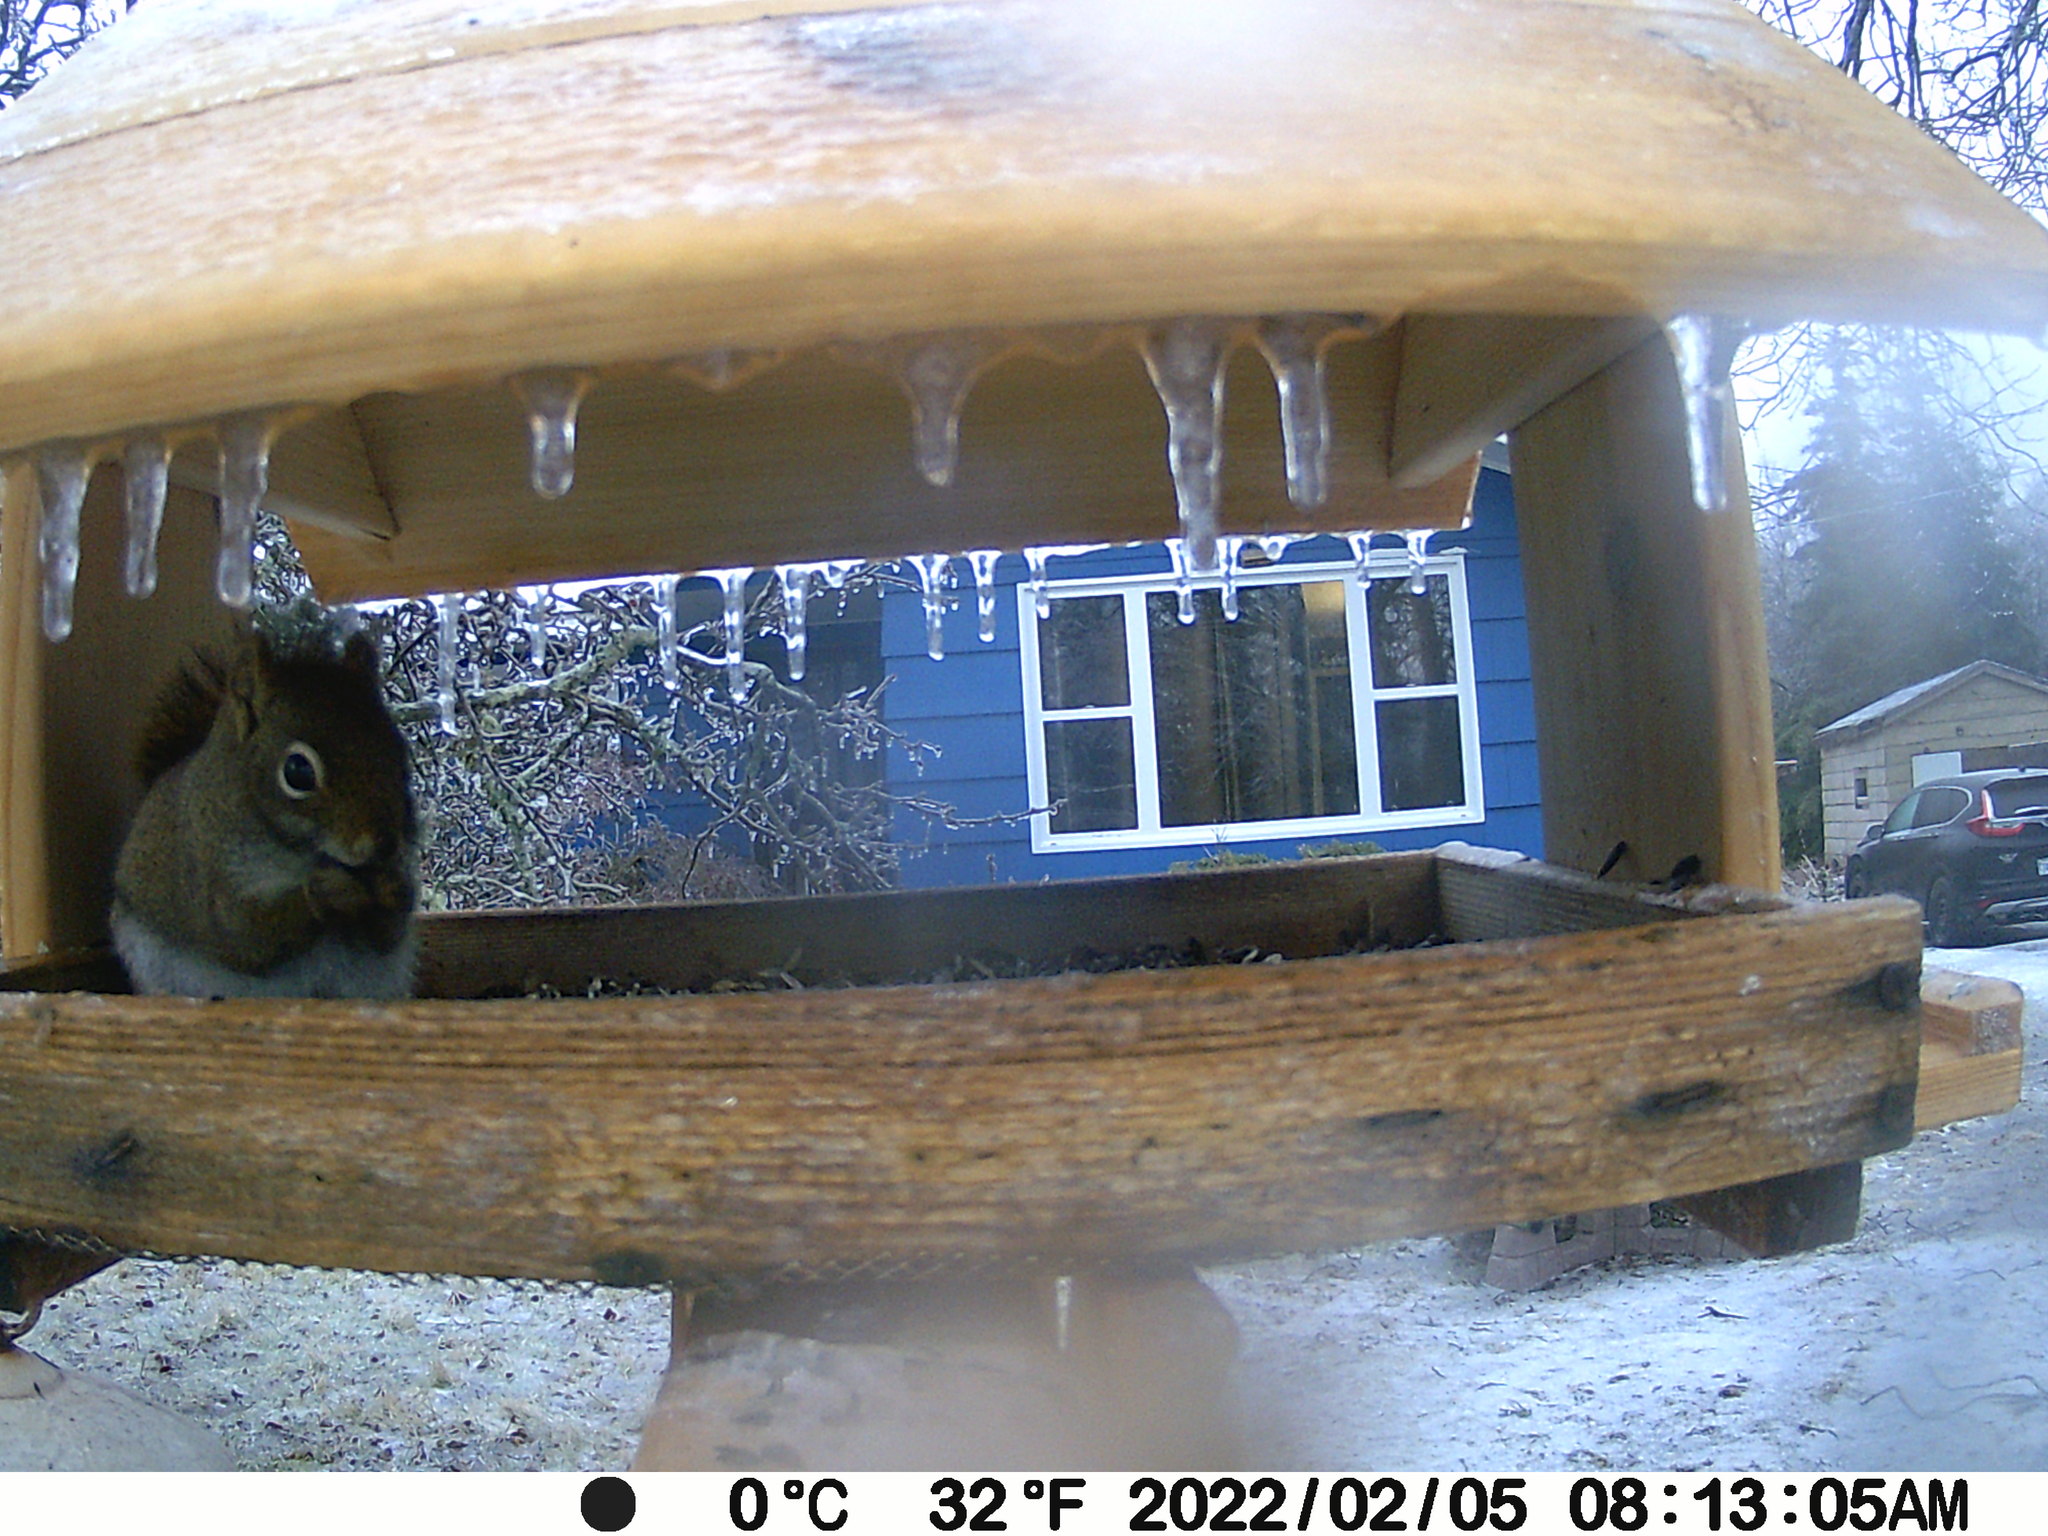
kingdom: Animalia
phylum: Chordata
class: Mammalia
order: Rodentia
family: Sciuridae
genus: Tamiasciurus
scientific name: Tamiasciurus hudsonicus
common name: Red squirrel
